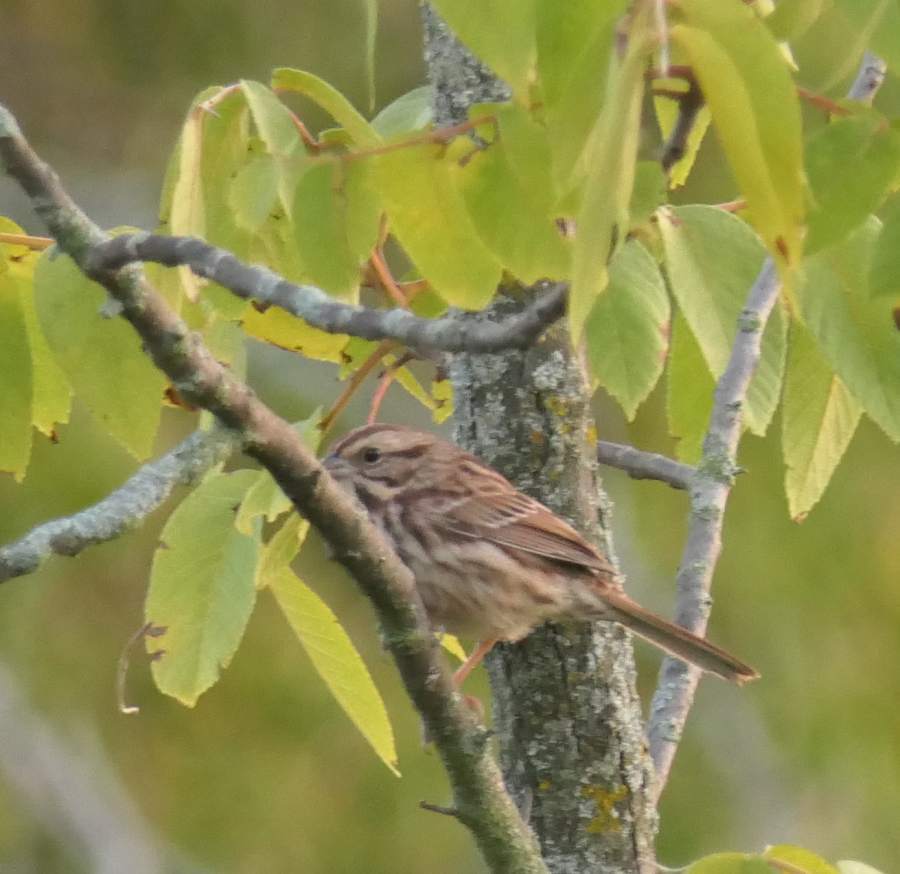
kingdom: Animalia
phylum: Chordata
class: Aves
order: Passeriformes
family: Passerellidae
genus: Melospiza
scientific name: Melospiza melodia
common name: Song sparrow
